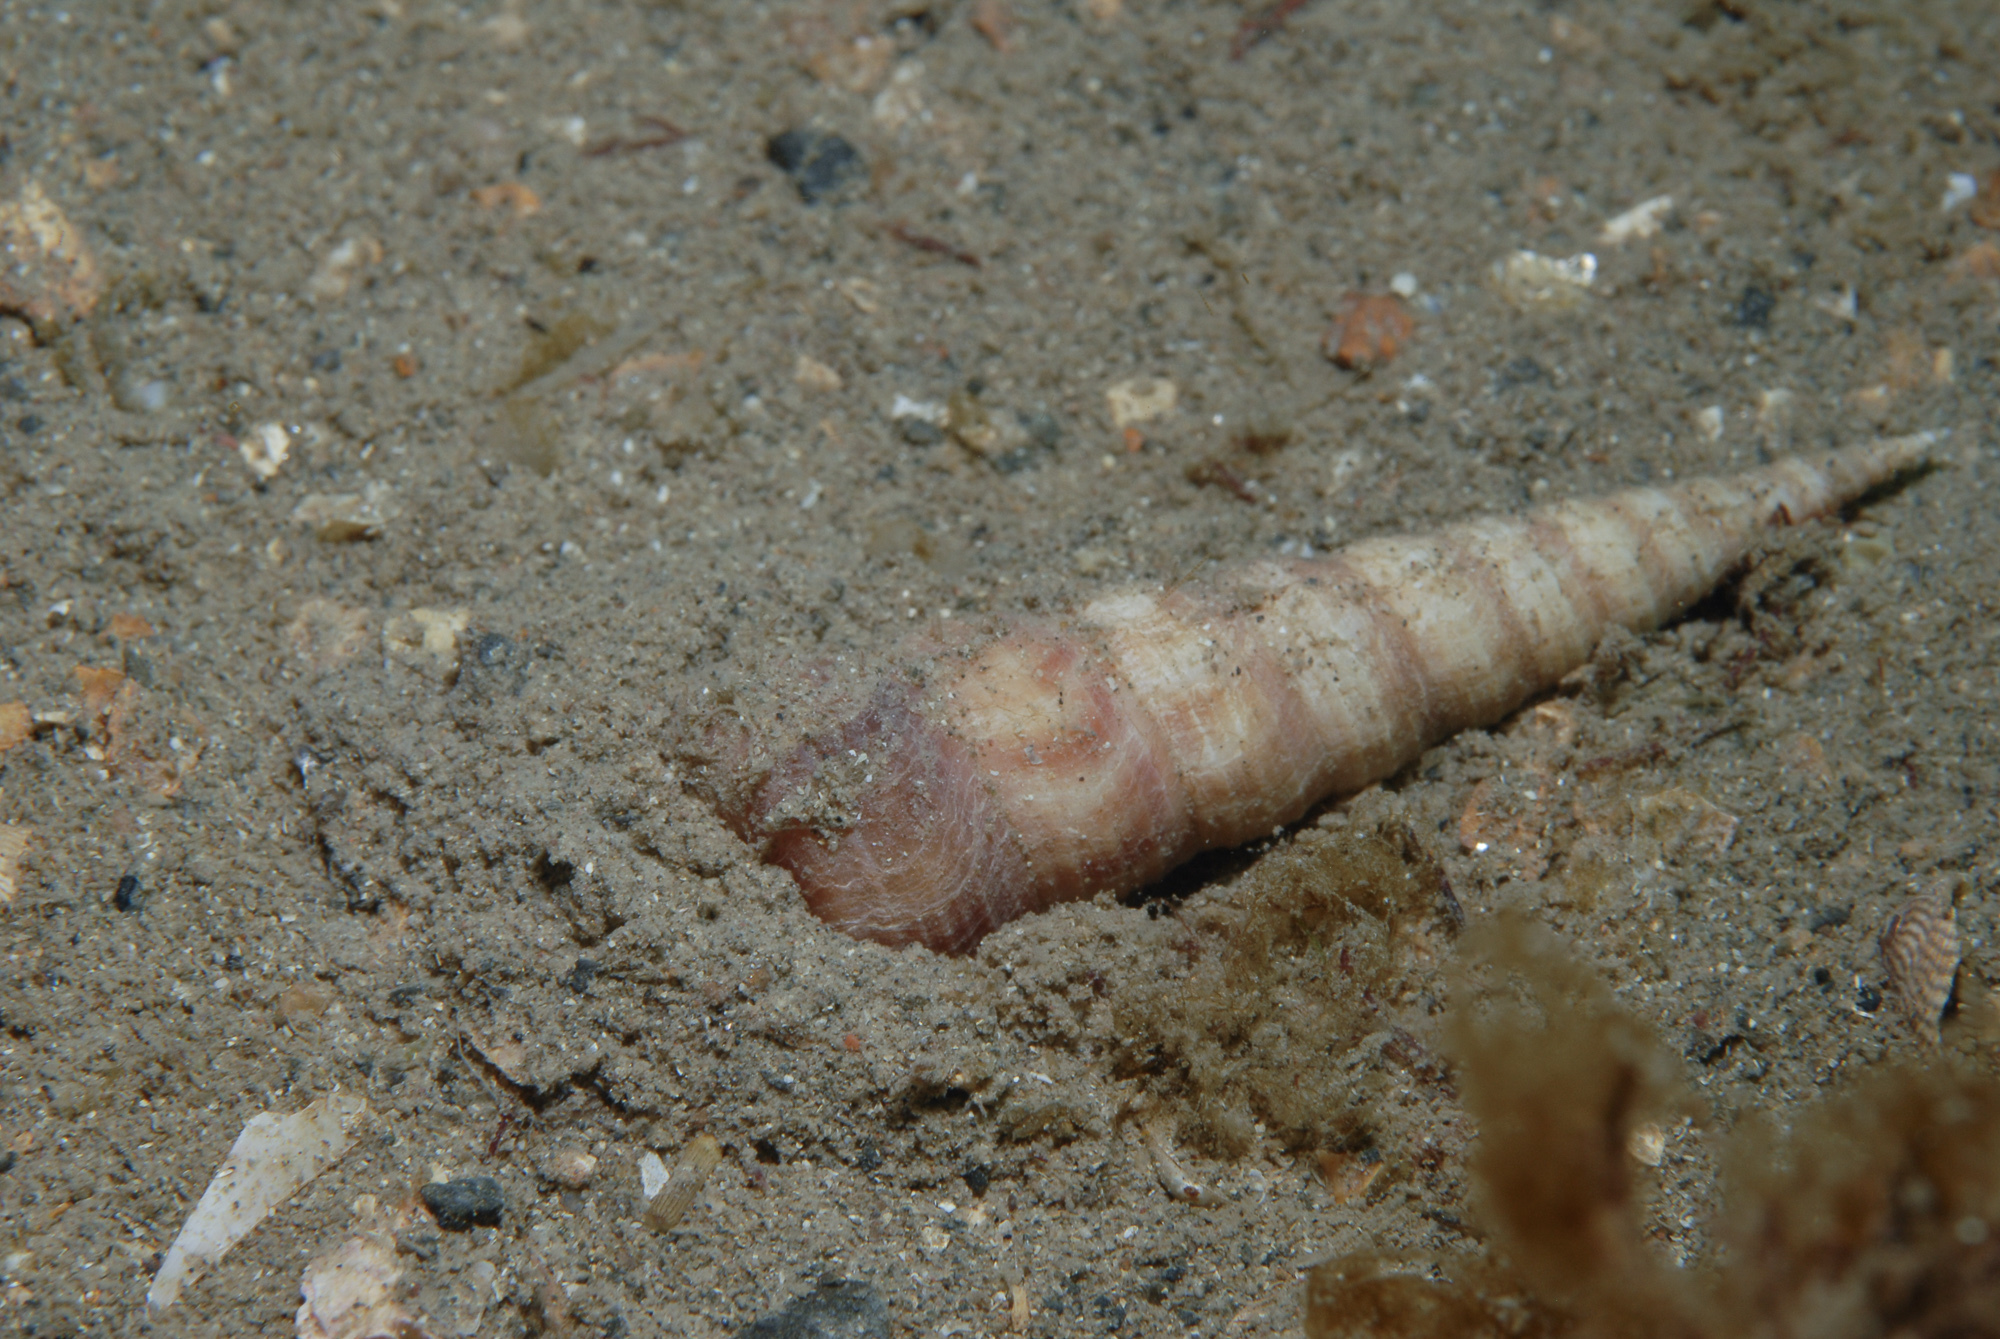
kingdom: Animalia
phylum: Mollusca
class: Gastropoda
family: Turritellidae
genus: Turritellinella
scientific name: Turritellinella tricarinata
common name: Auger shell
